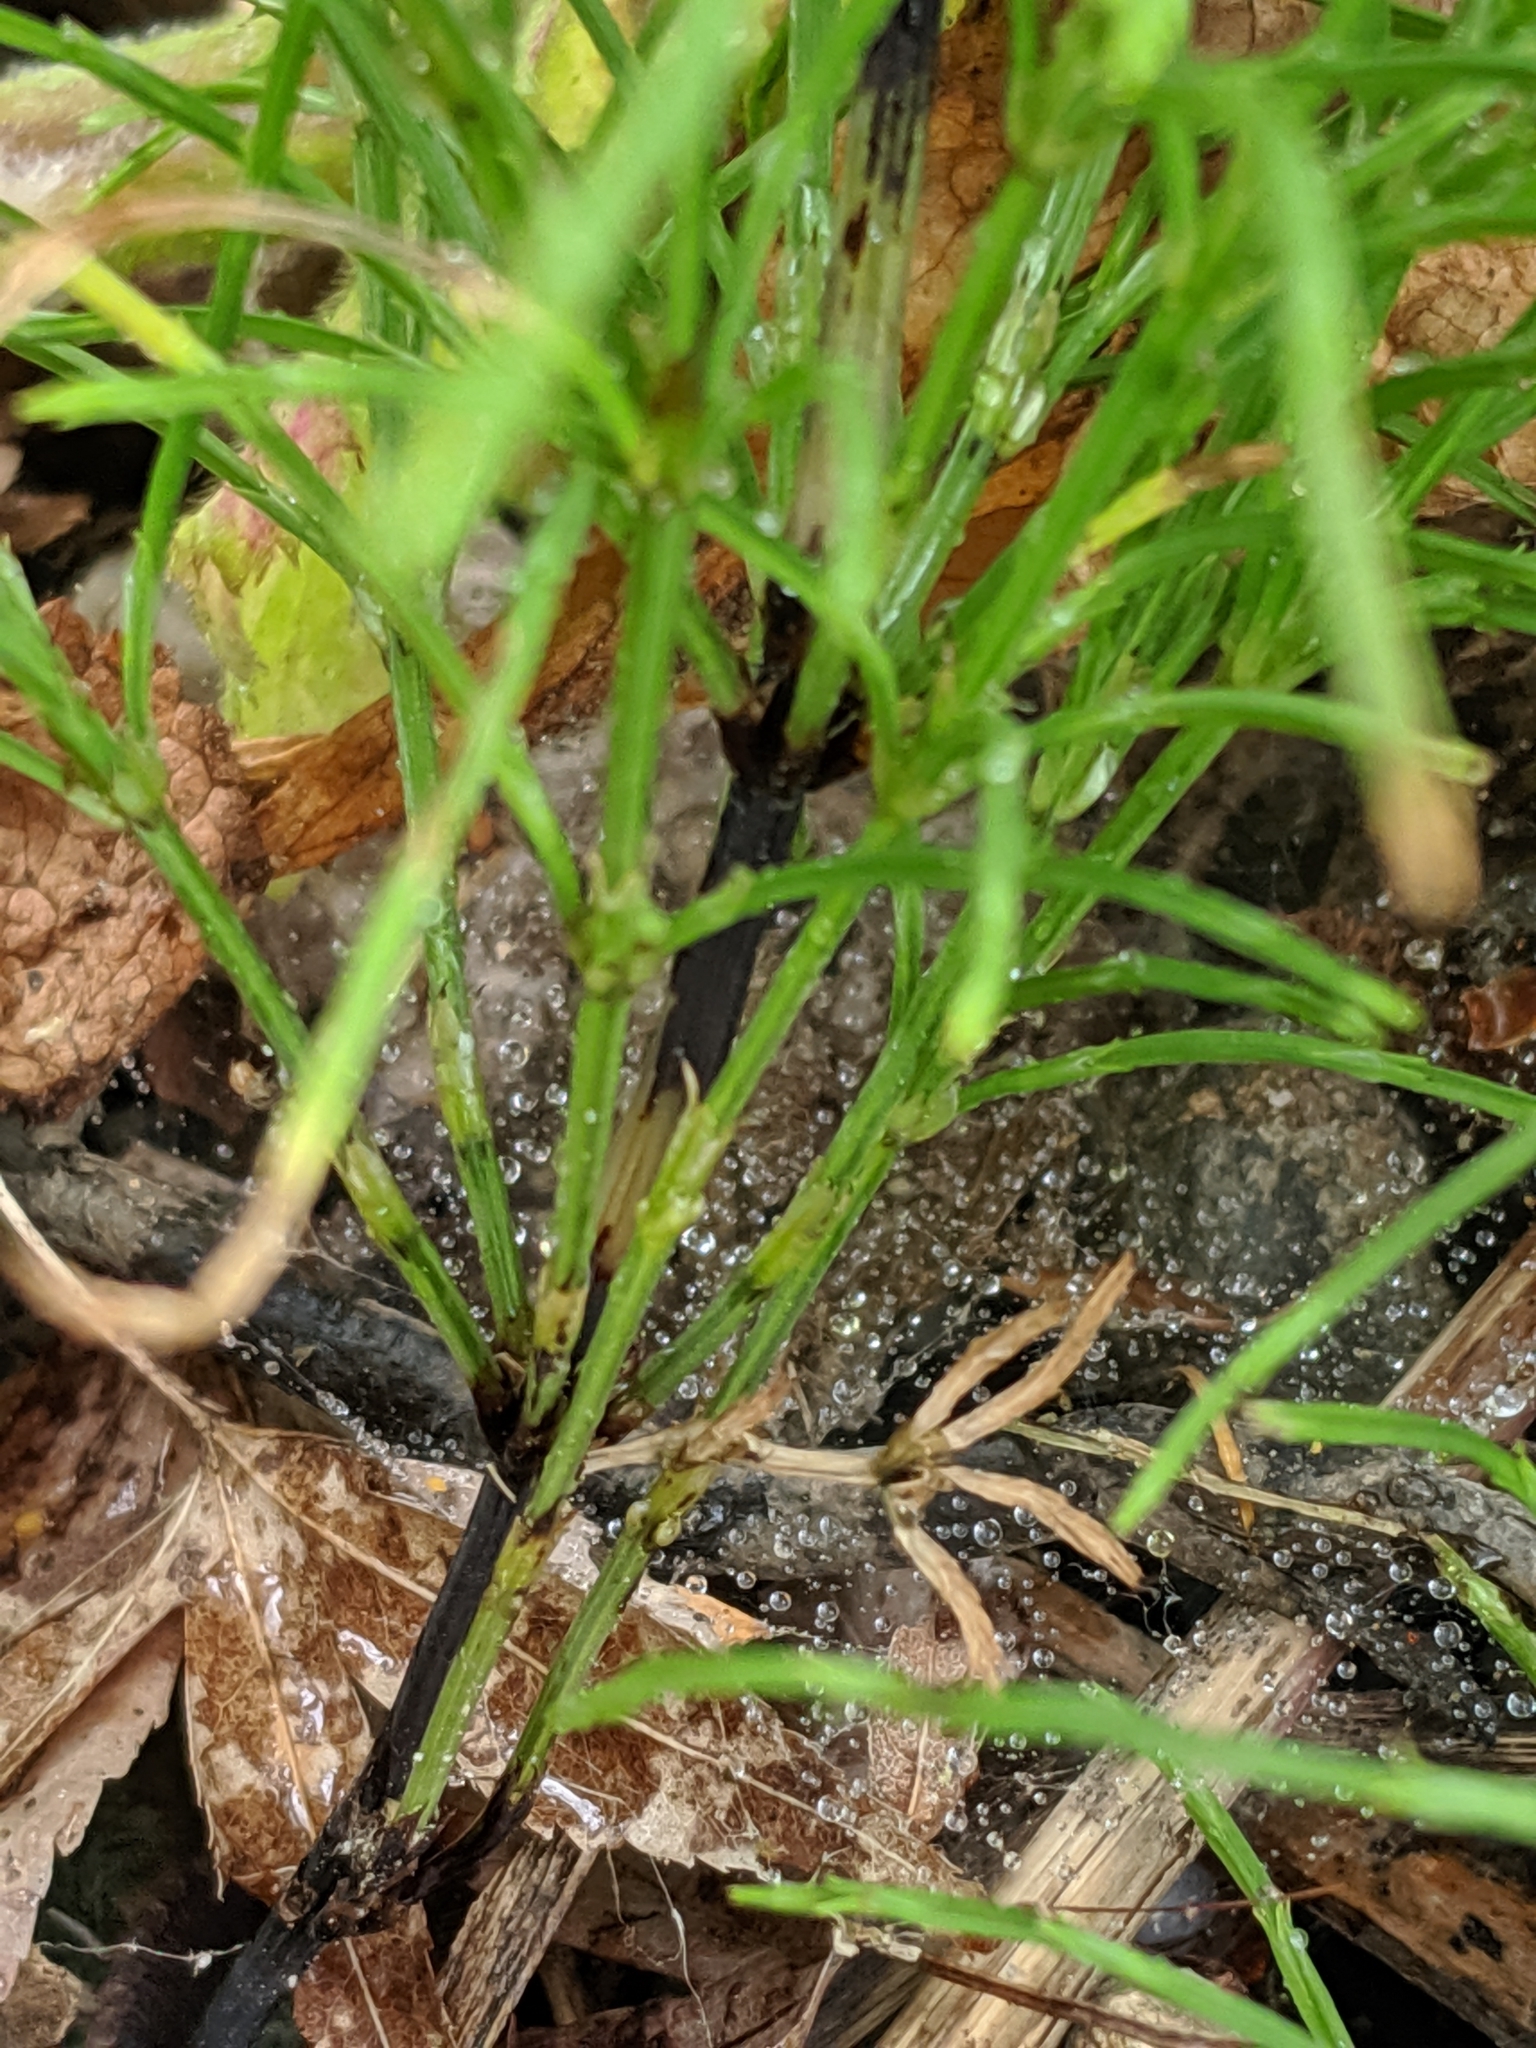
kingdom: Plantae
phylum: Tracheophyta
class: Polypodiopsida
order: Equisetales
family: Equisetaceae
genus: Equisetum
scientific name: Equisetum arvense
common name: Field horsetail
